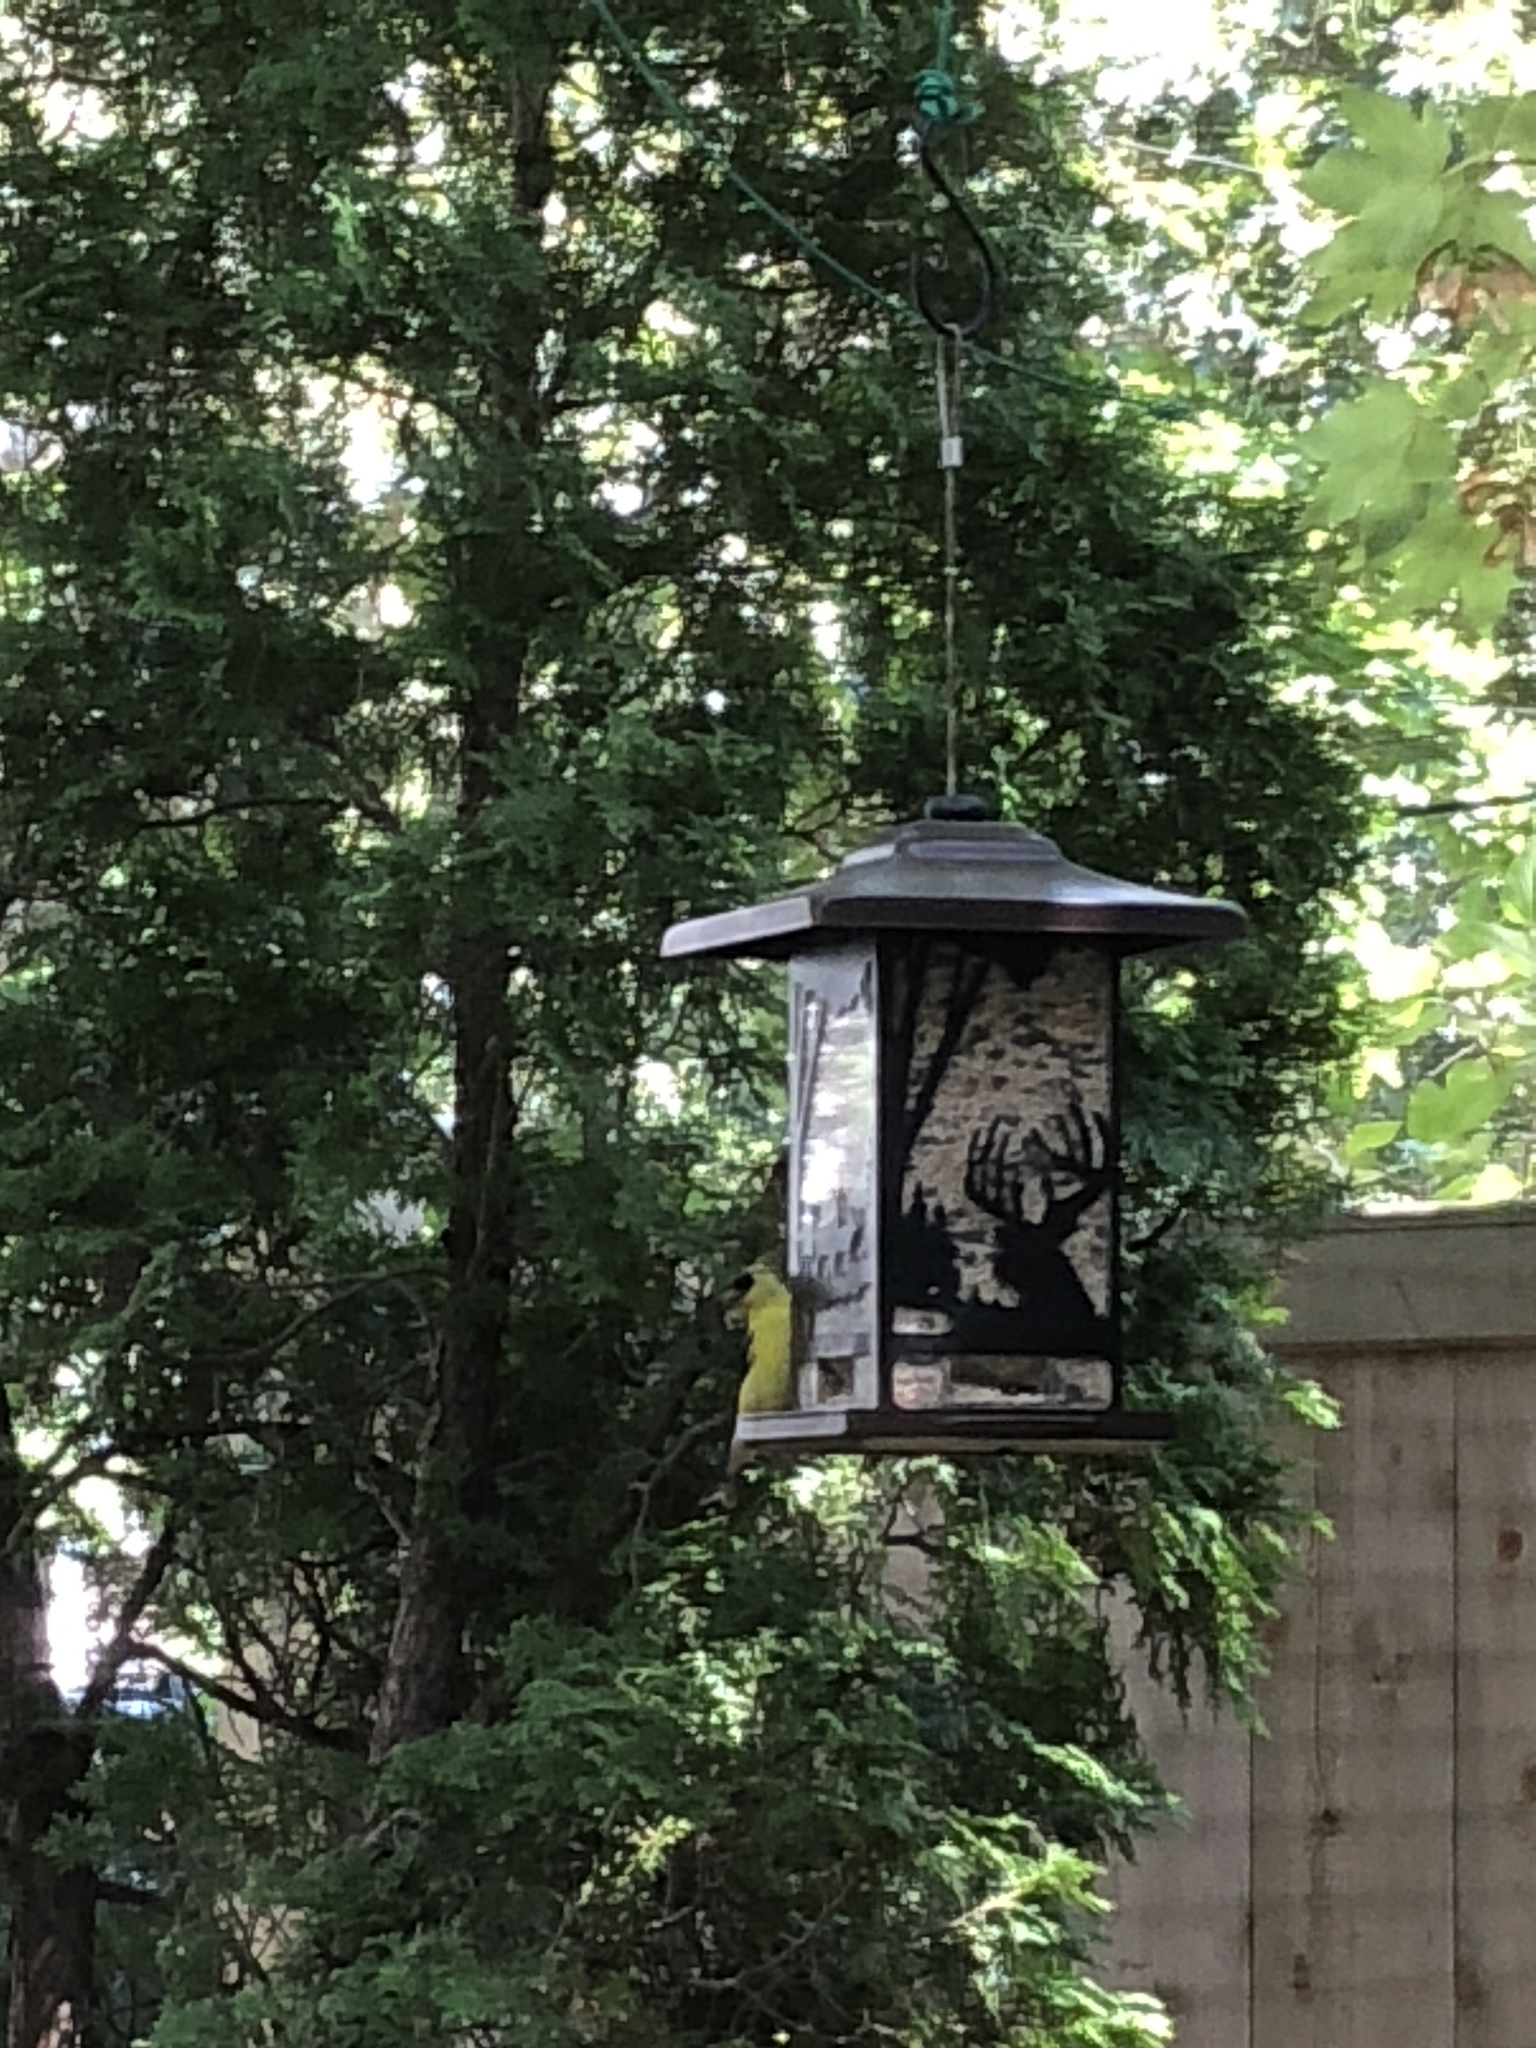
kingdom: Animalia
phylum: Chordata
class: Aves
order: Passeriformes
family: Fringillidae
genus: Spinus
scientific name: Spinus tristis
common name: American goldfinch
